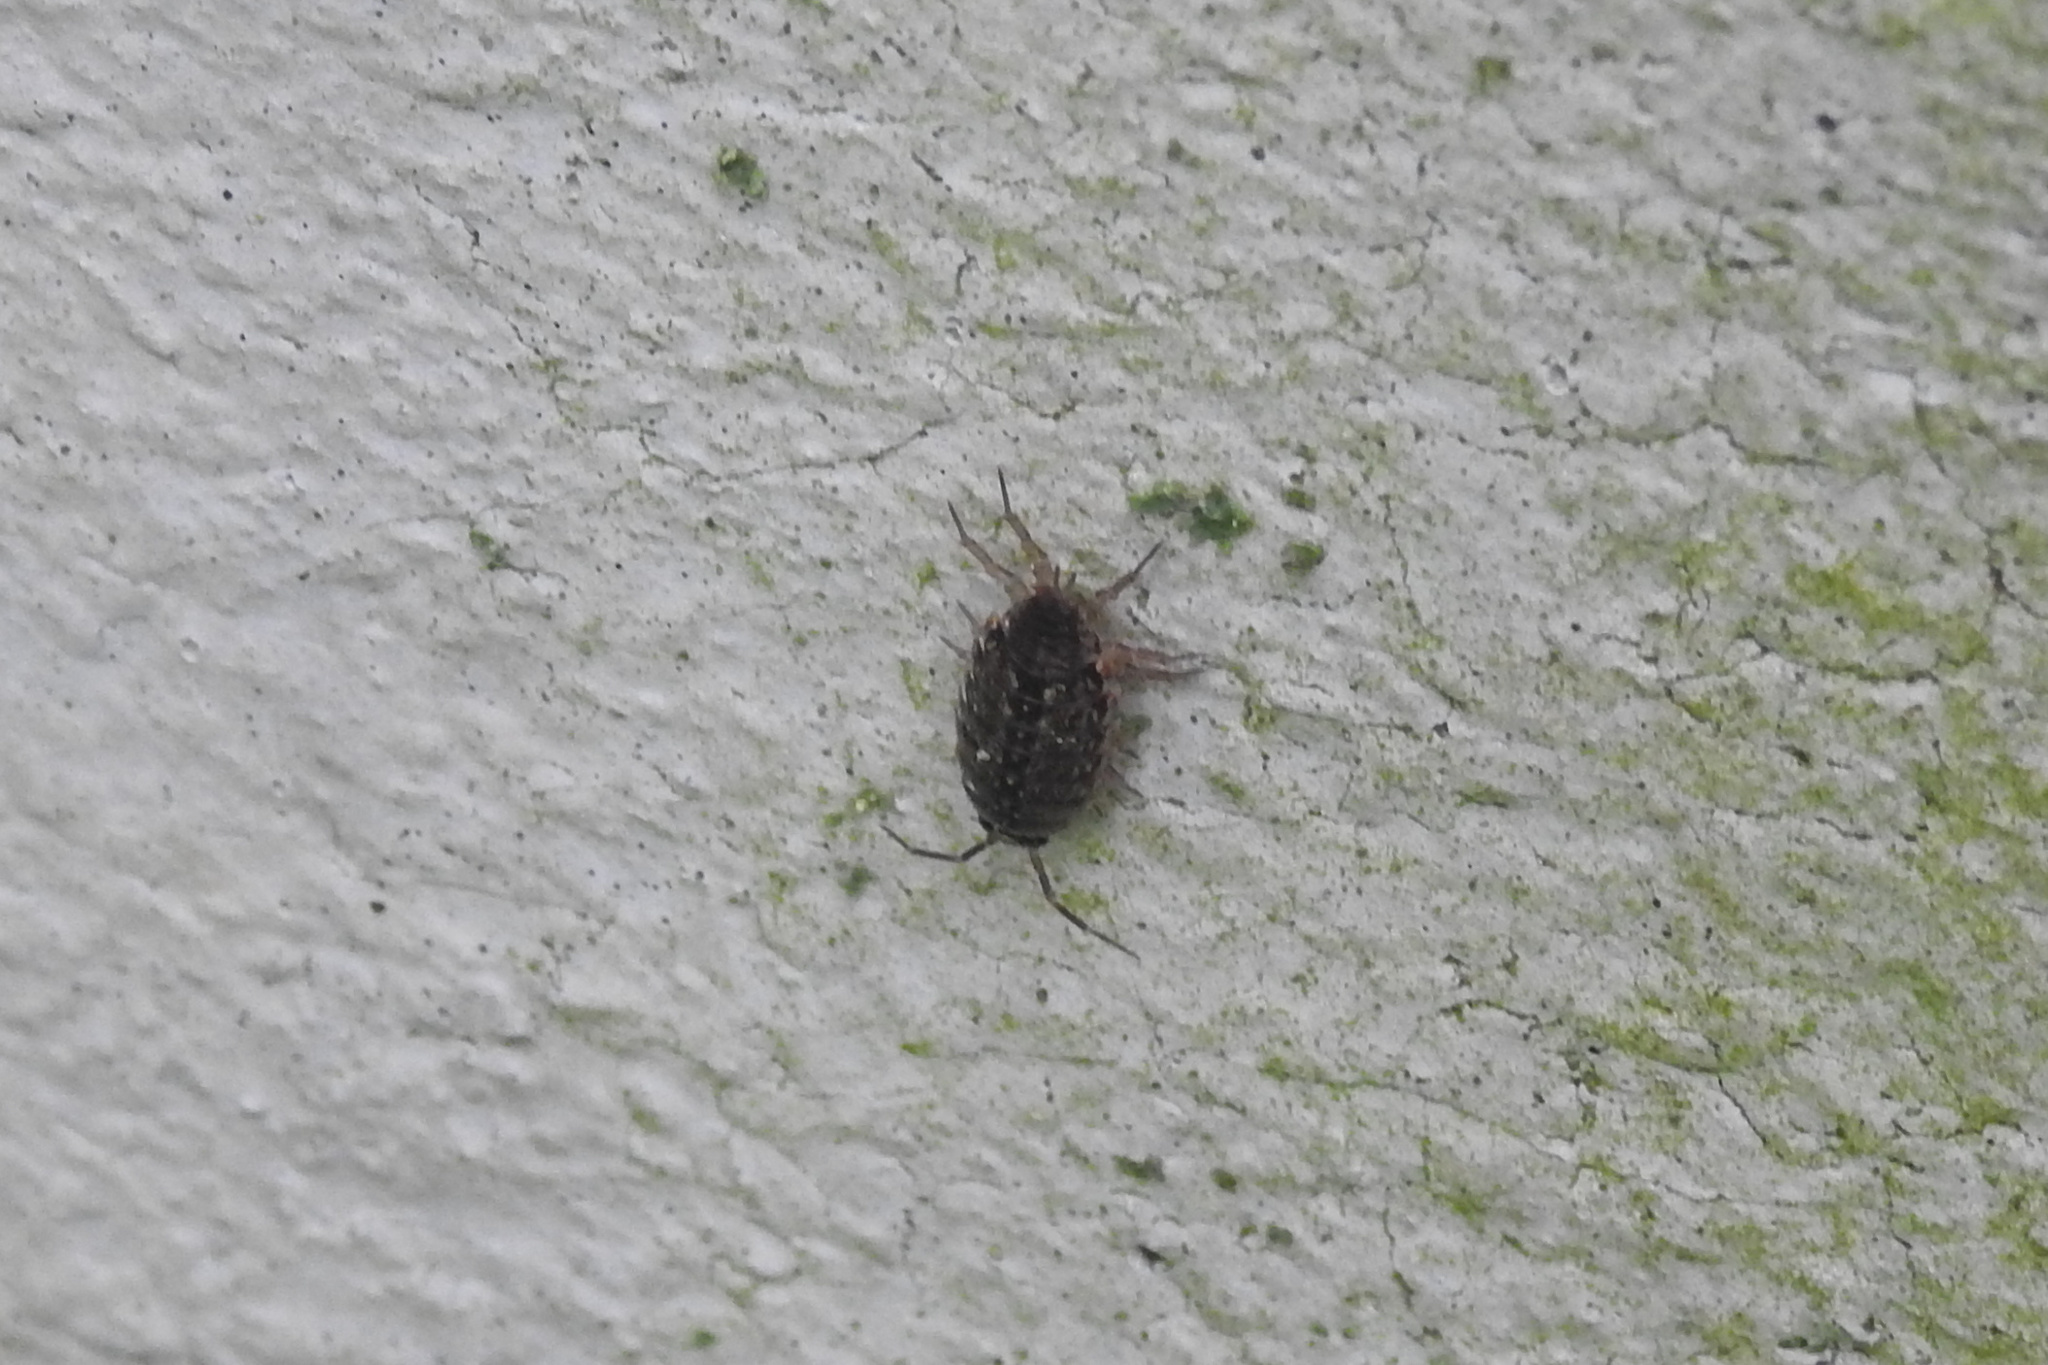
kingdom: Animalia
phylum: Arthropoda
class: Malacostraca
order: Isopoda
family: Philosciidae
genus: Philoscia
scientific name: Philoscia muscorum
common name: Common striped woodlouse
